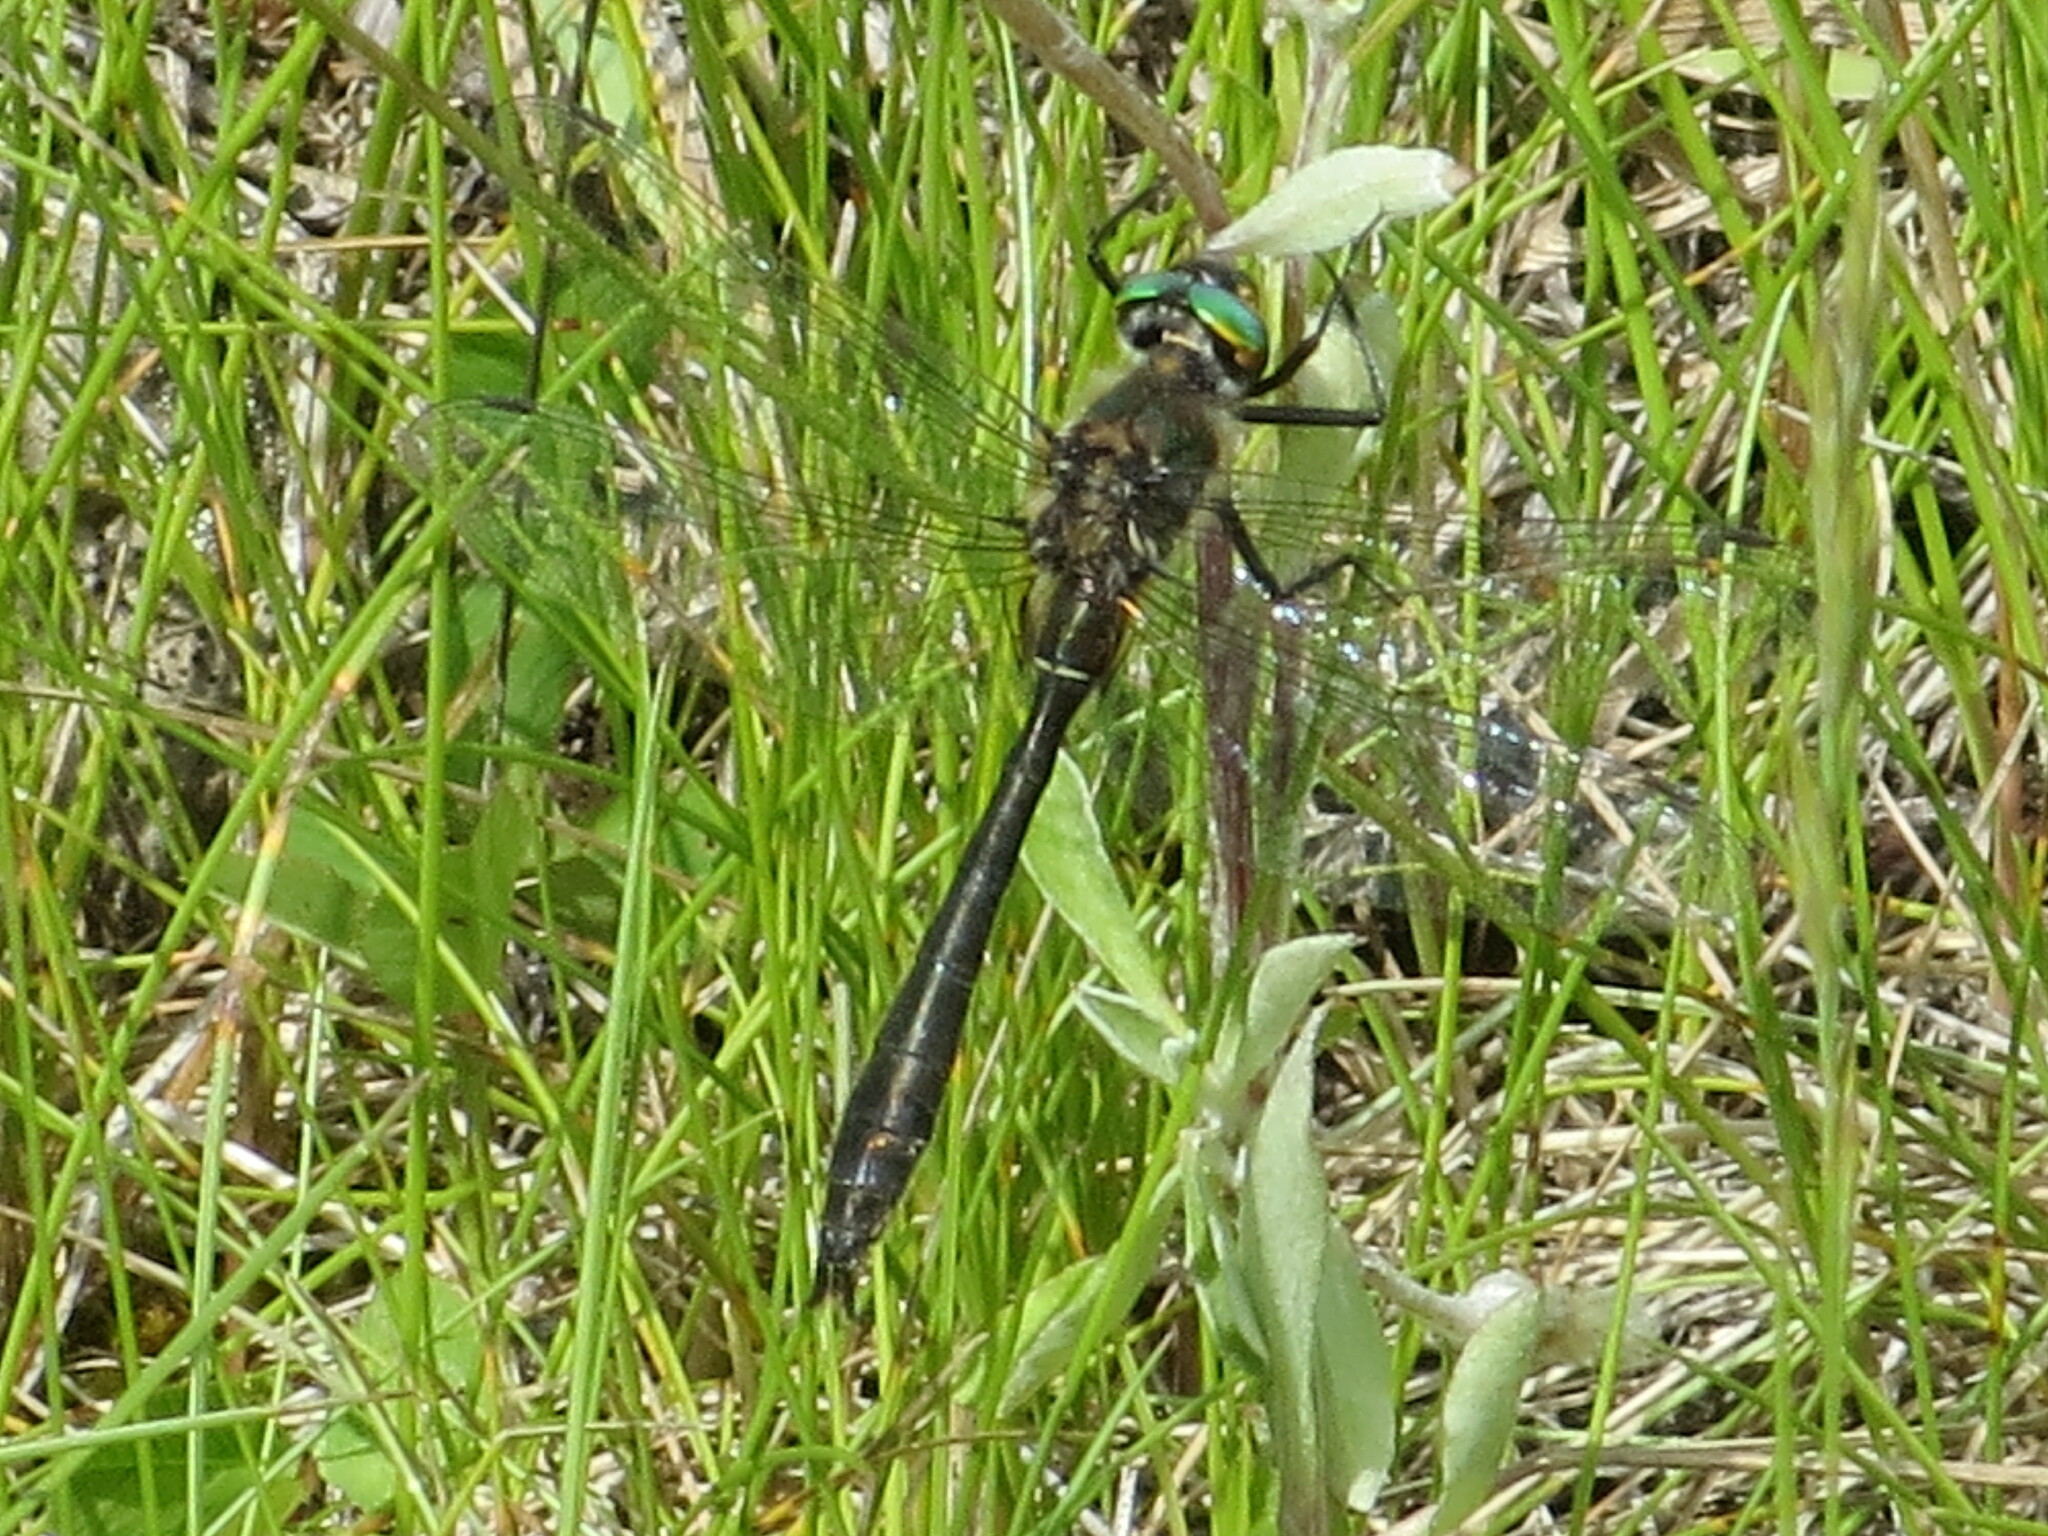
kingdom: Animalia
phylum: Arthropoda
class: Insecta
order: Odonata
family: Corduliidae
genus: Cordulia
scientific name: Cordulia shurtleffii
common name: American emerald
